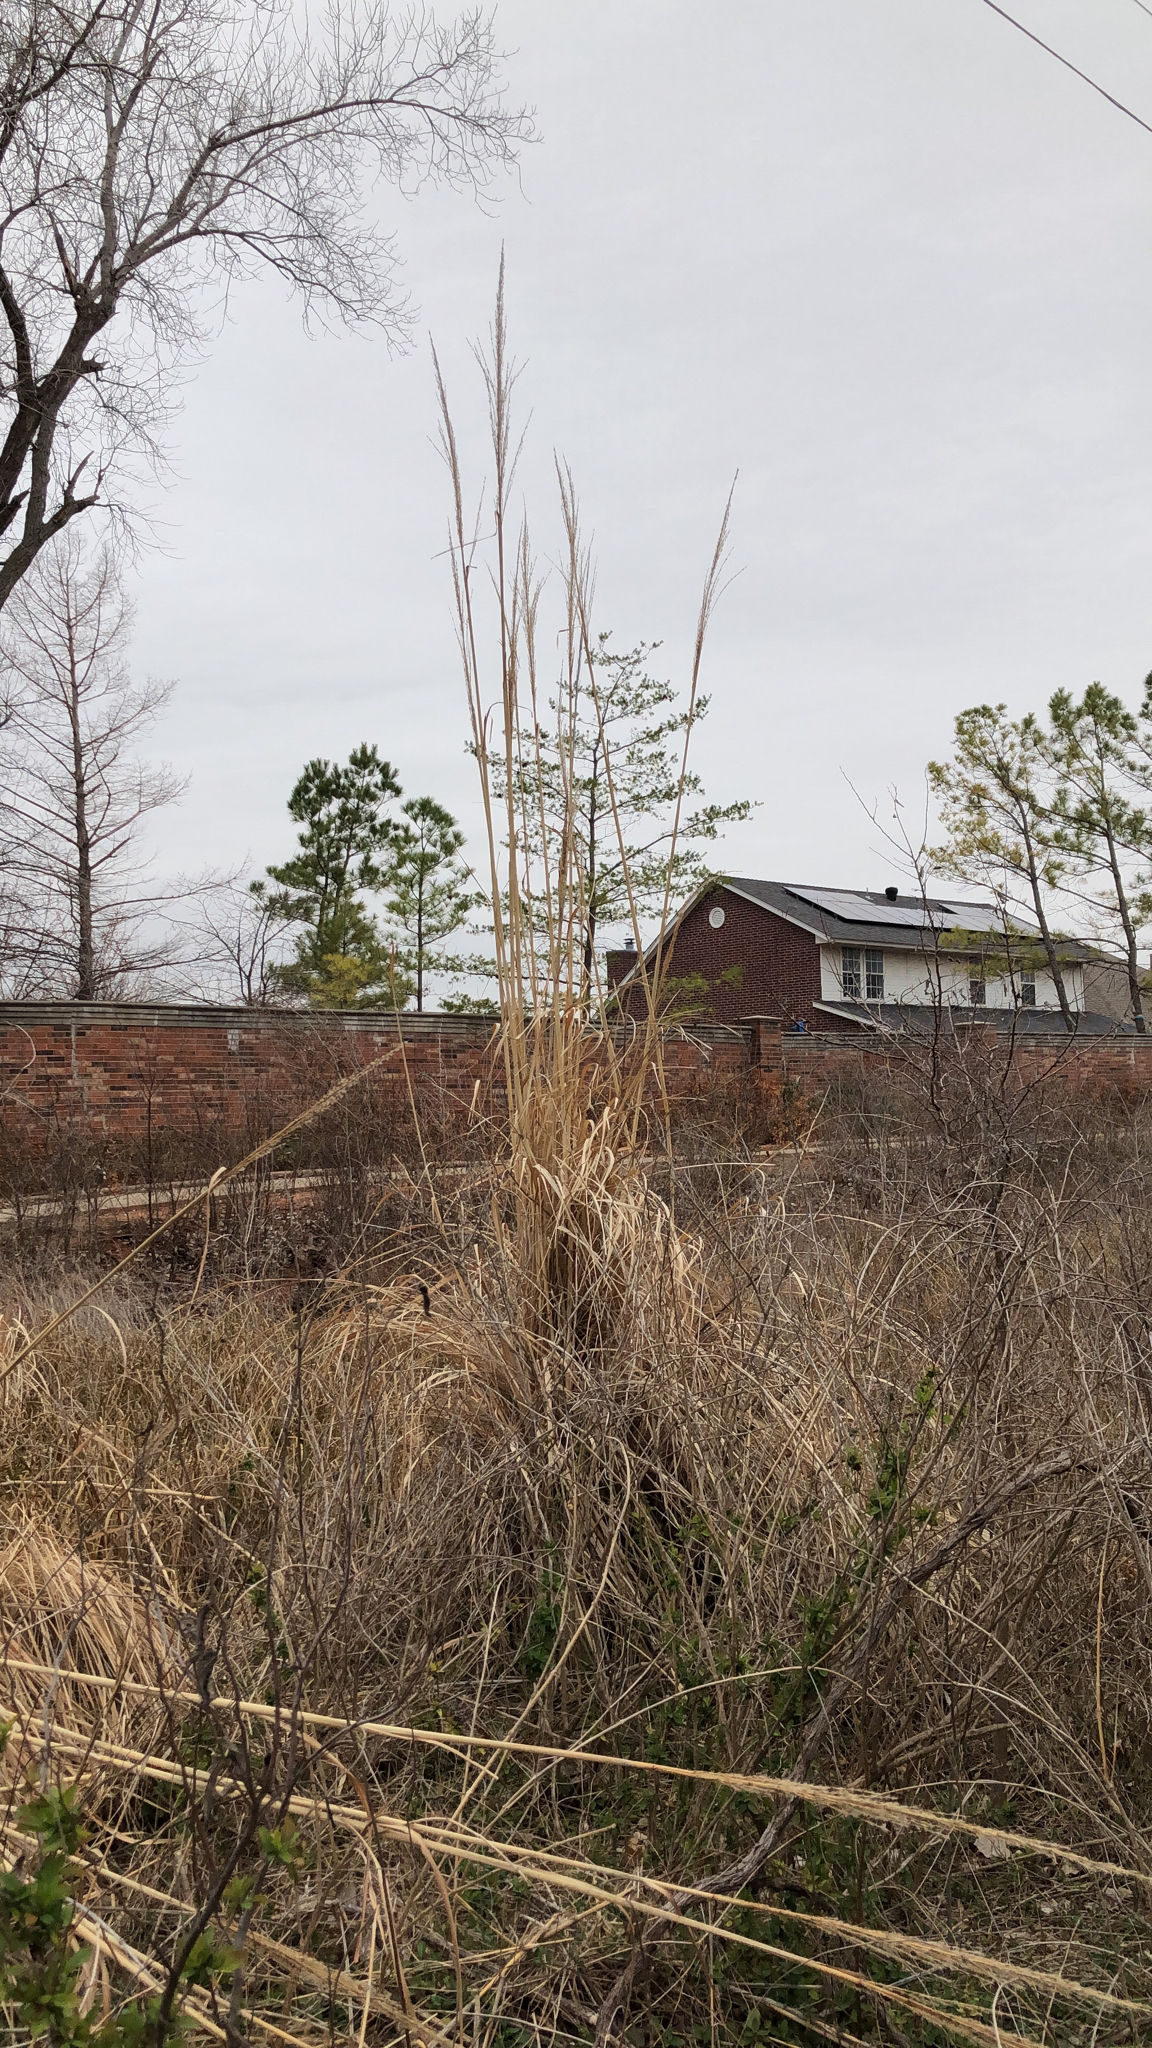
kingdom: Plantae
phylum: Tracheophyta
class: Liliopsida
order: Poales
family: Poaceae
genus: Tripidium
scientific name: Tripidium ravennae
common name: Ravenna grass
